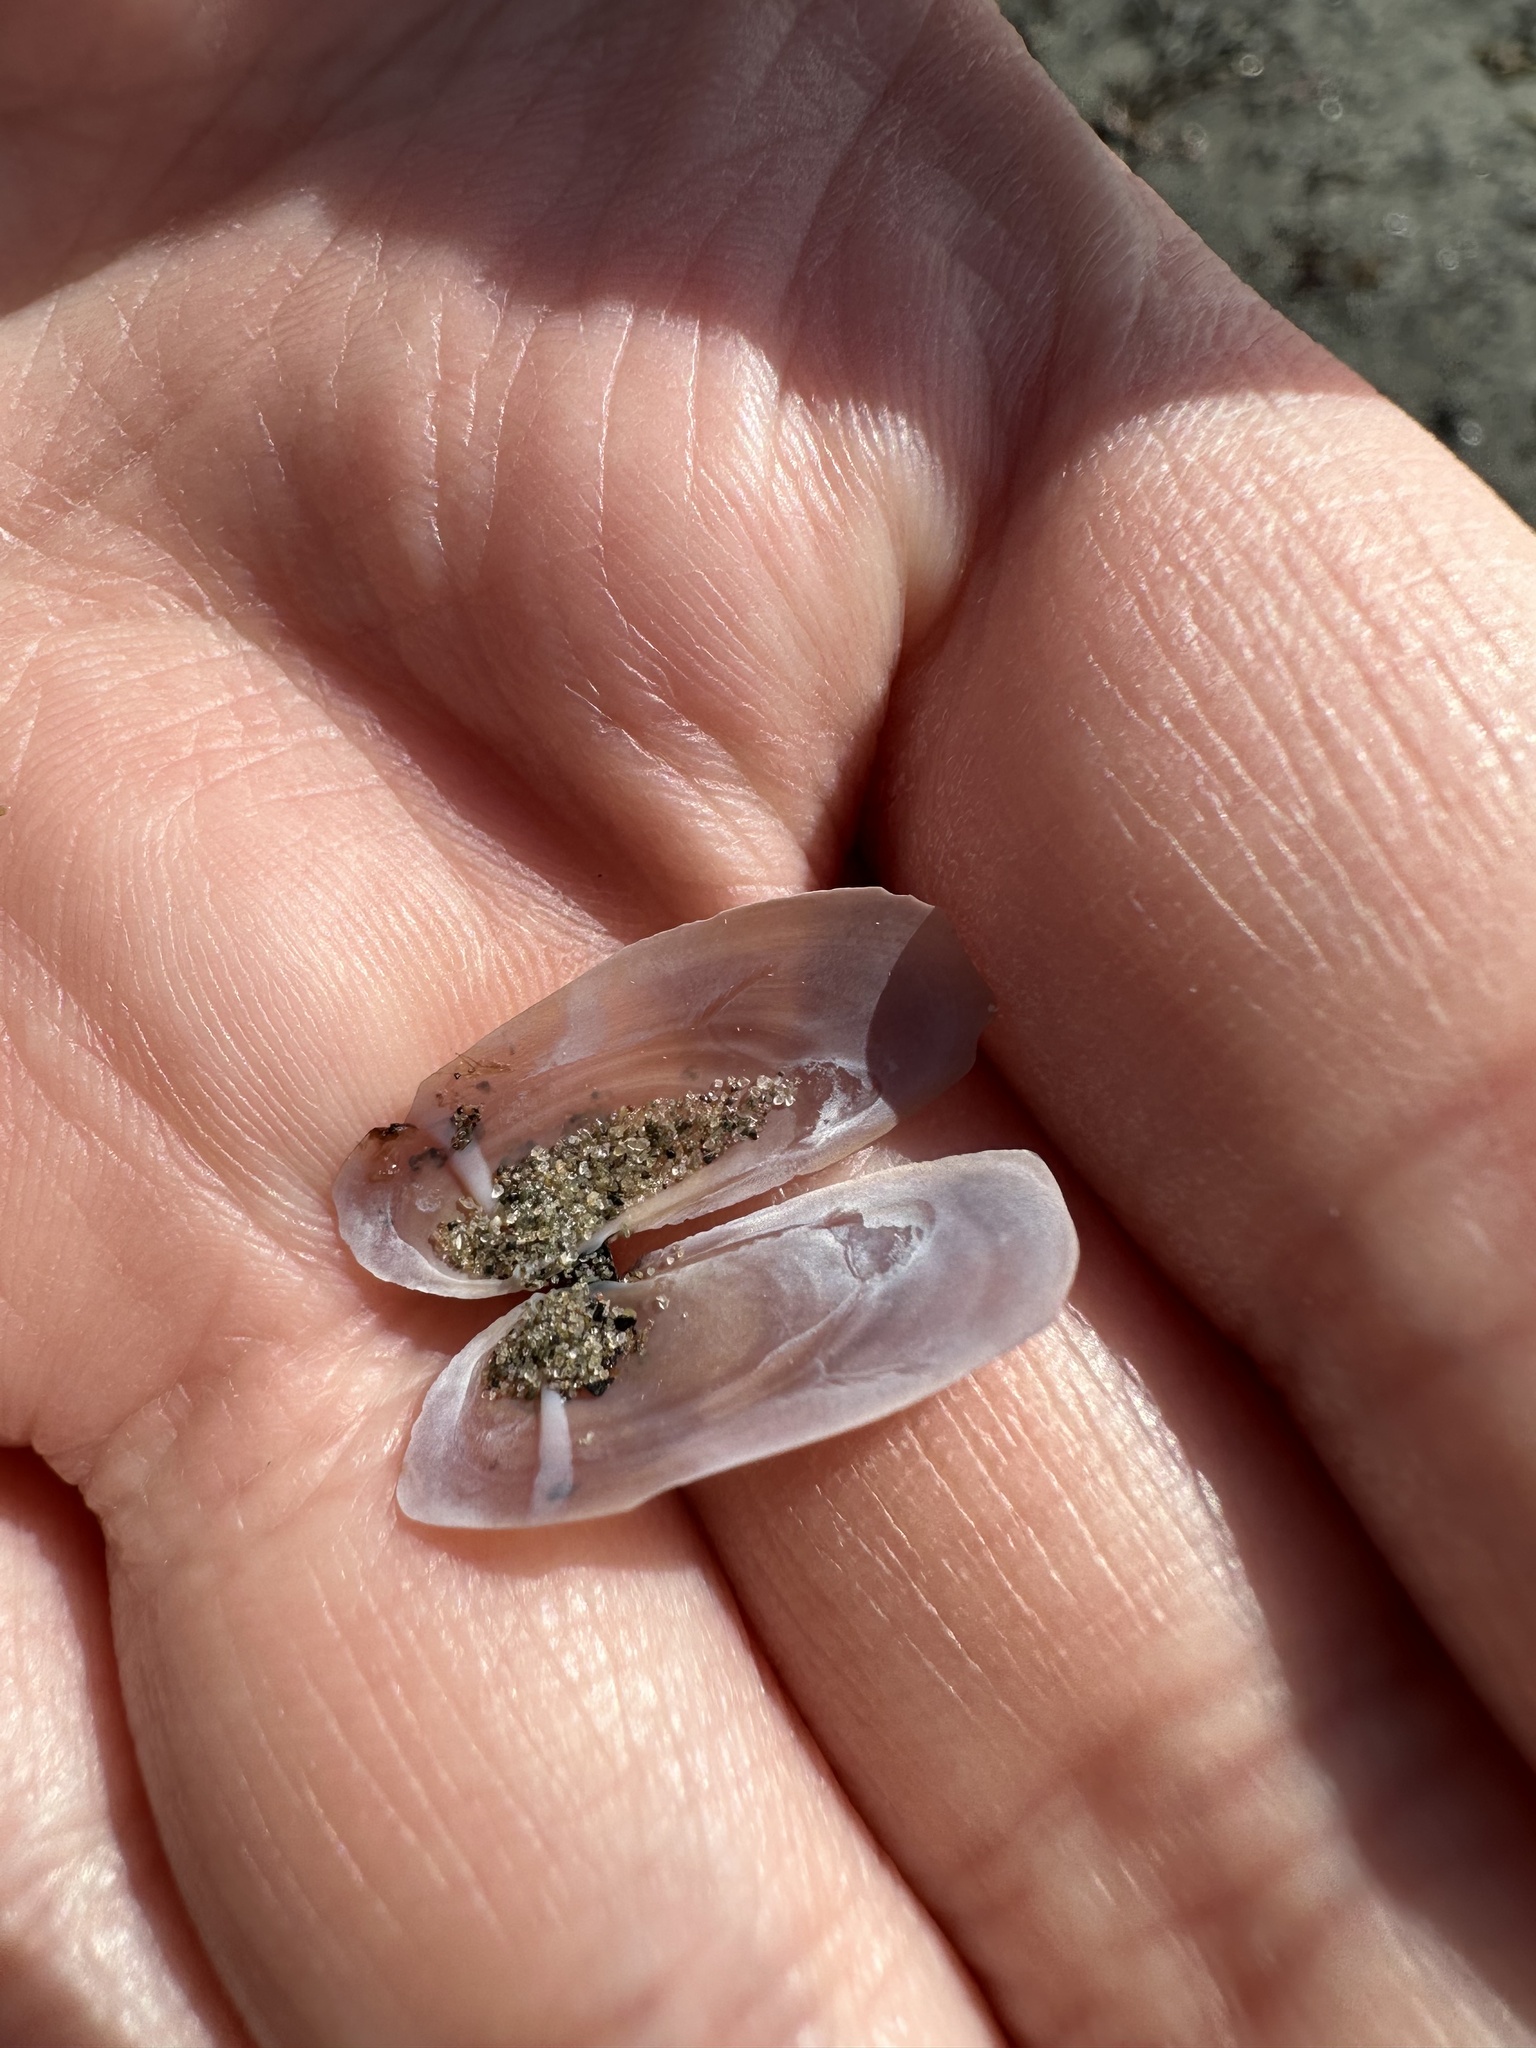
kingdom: Animalia
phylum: Mollusca
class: Bivalvia
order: Adapedonta
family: Pharidae
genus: Siliqua
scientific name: Siliqua costata
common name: Atlantic razor
